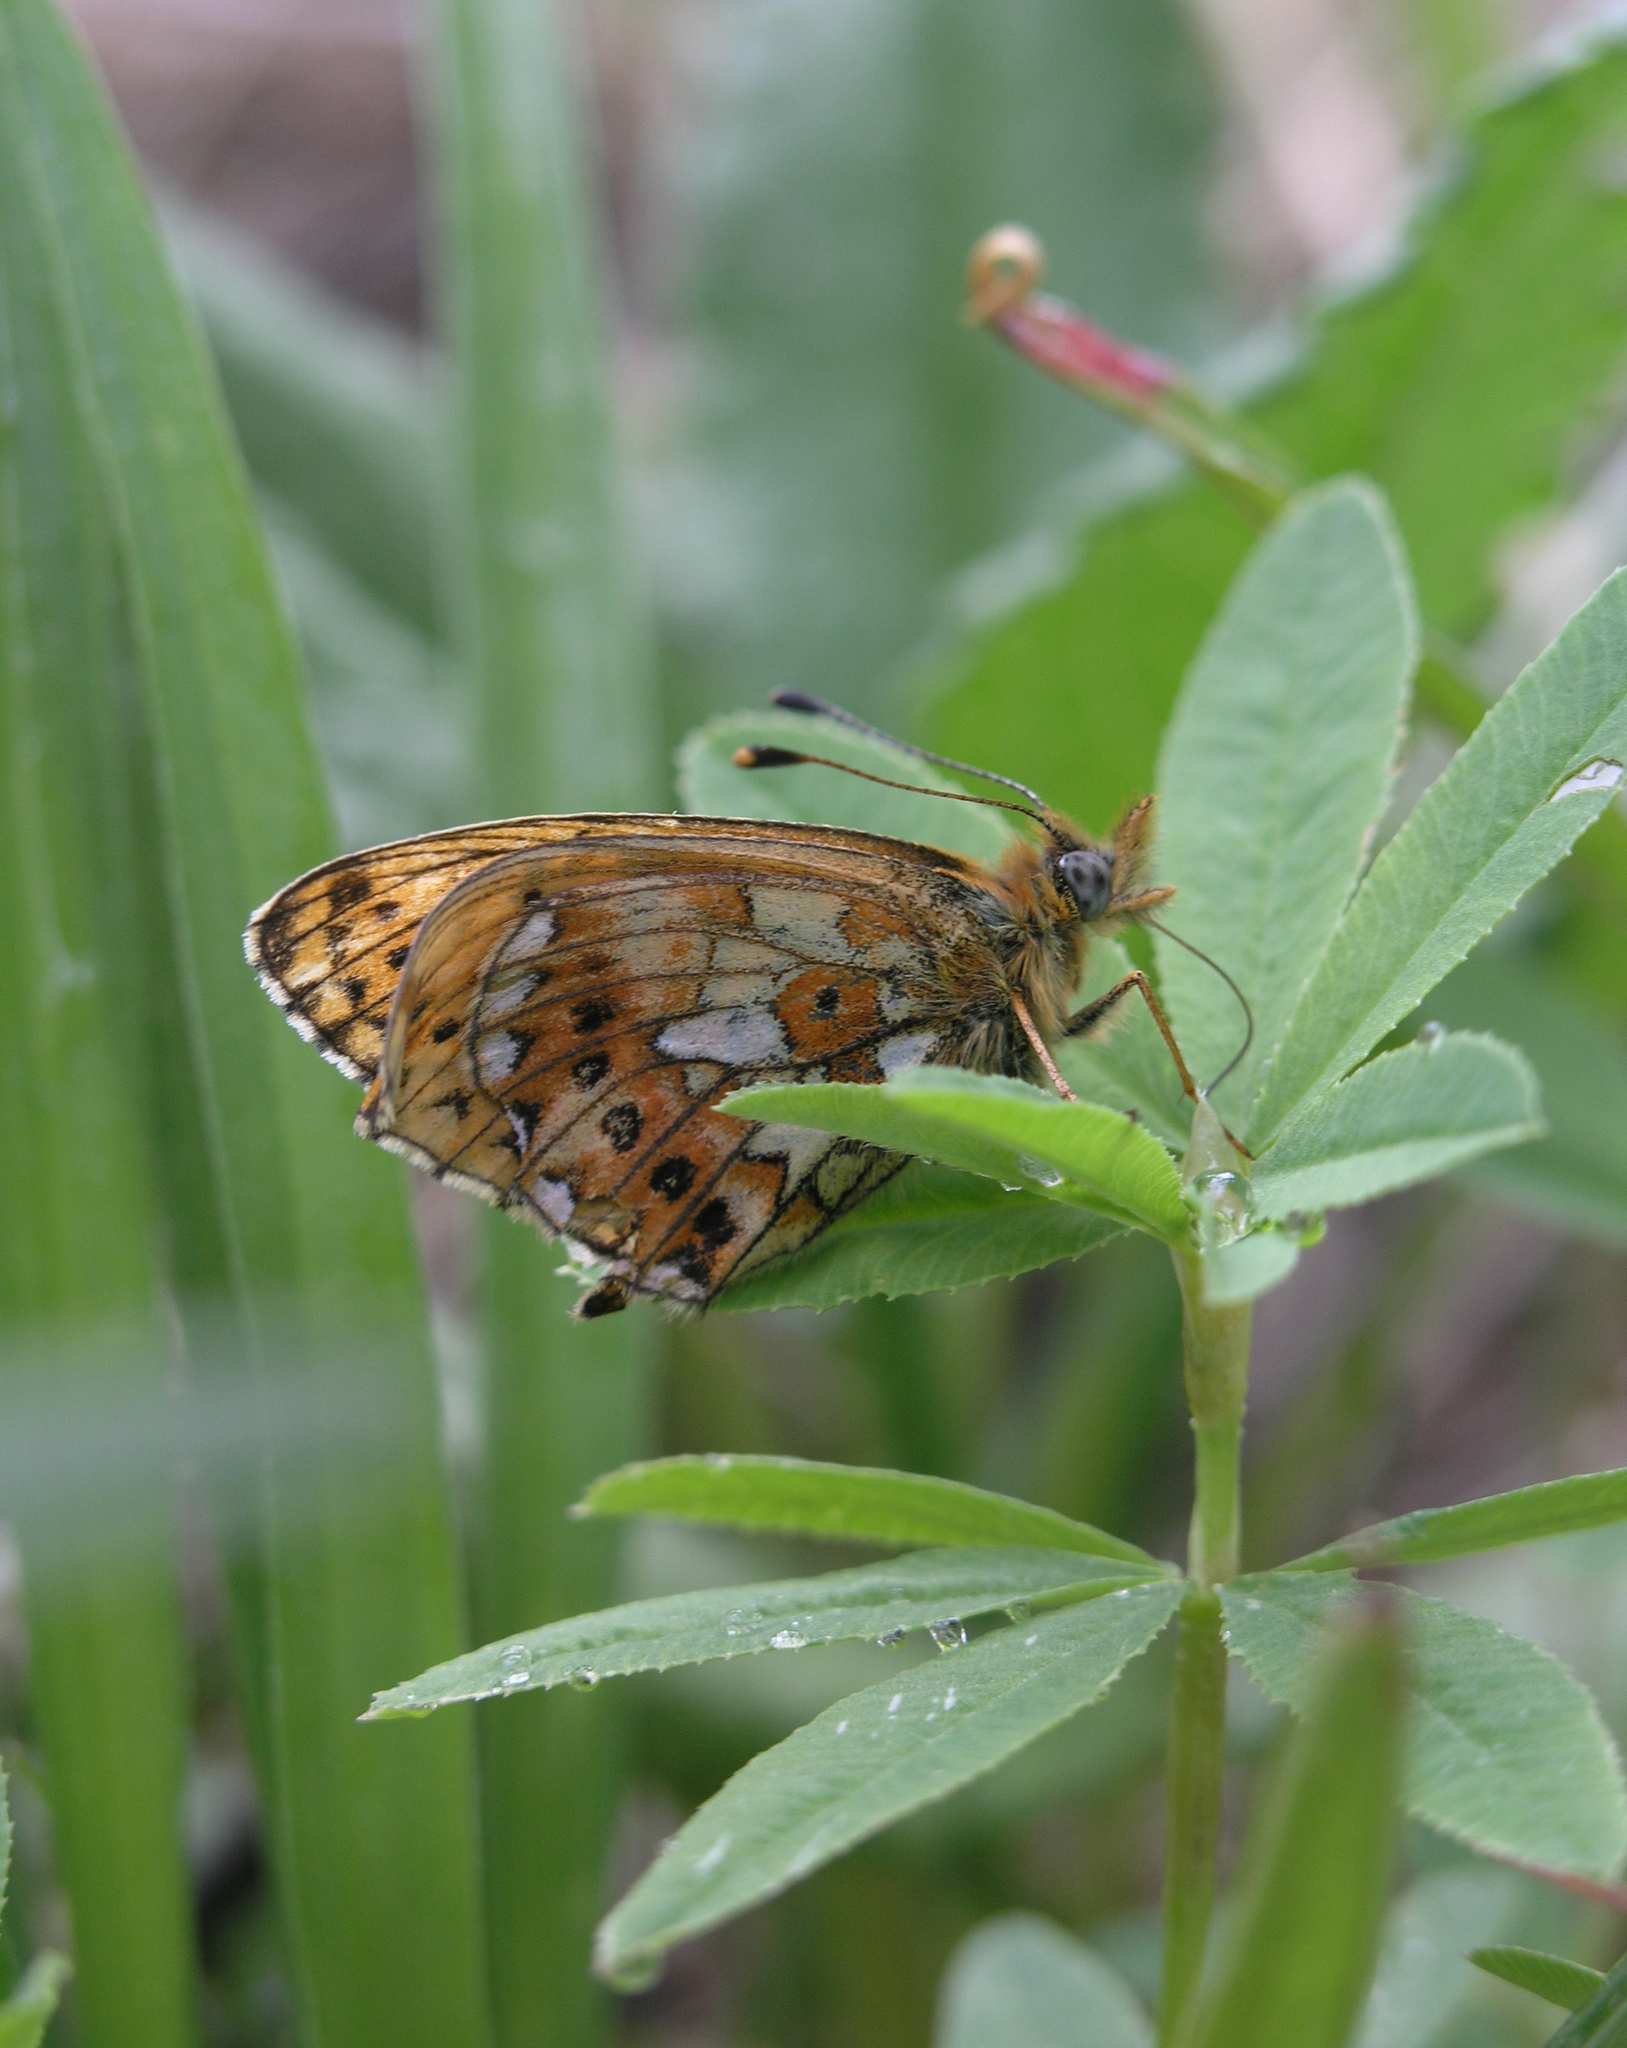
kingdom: Plantae
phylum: Tracheophyta
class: Magnoliopsida
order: Fabales
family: Fabaceae
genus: Trifolium
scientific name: Trifolium lupinaster
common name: Lupine clover
